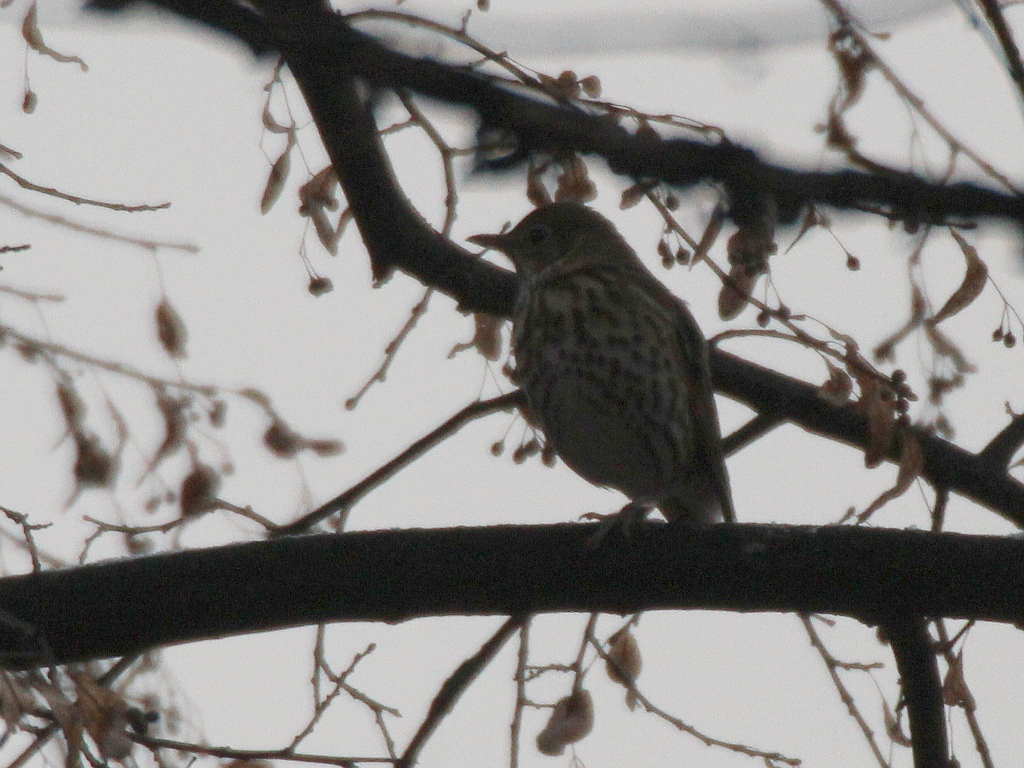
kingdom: Animalia
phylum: Chordata
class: Aves
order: Passeriformes
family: Turdidae
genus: Turdus
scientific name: Turdus philomelos
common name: Song thrush
